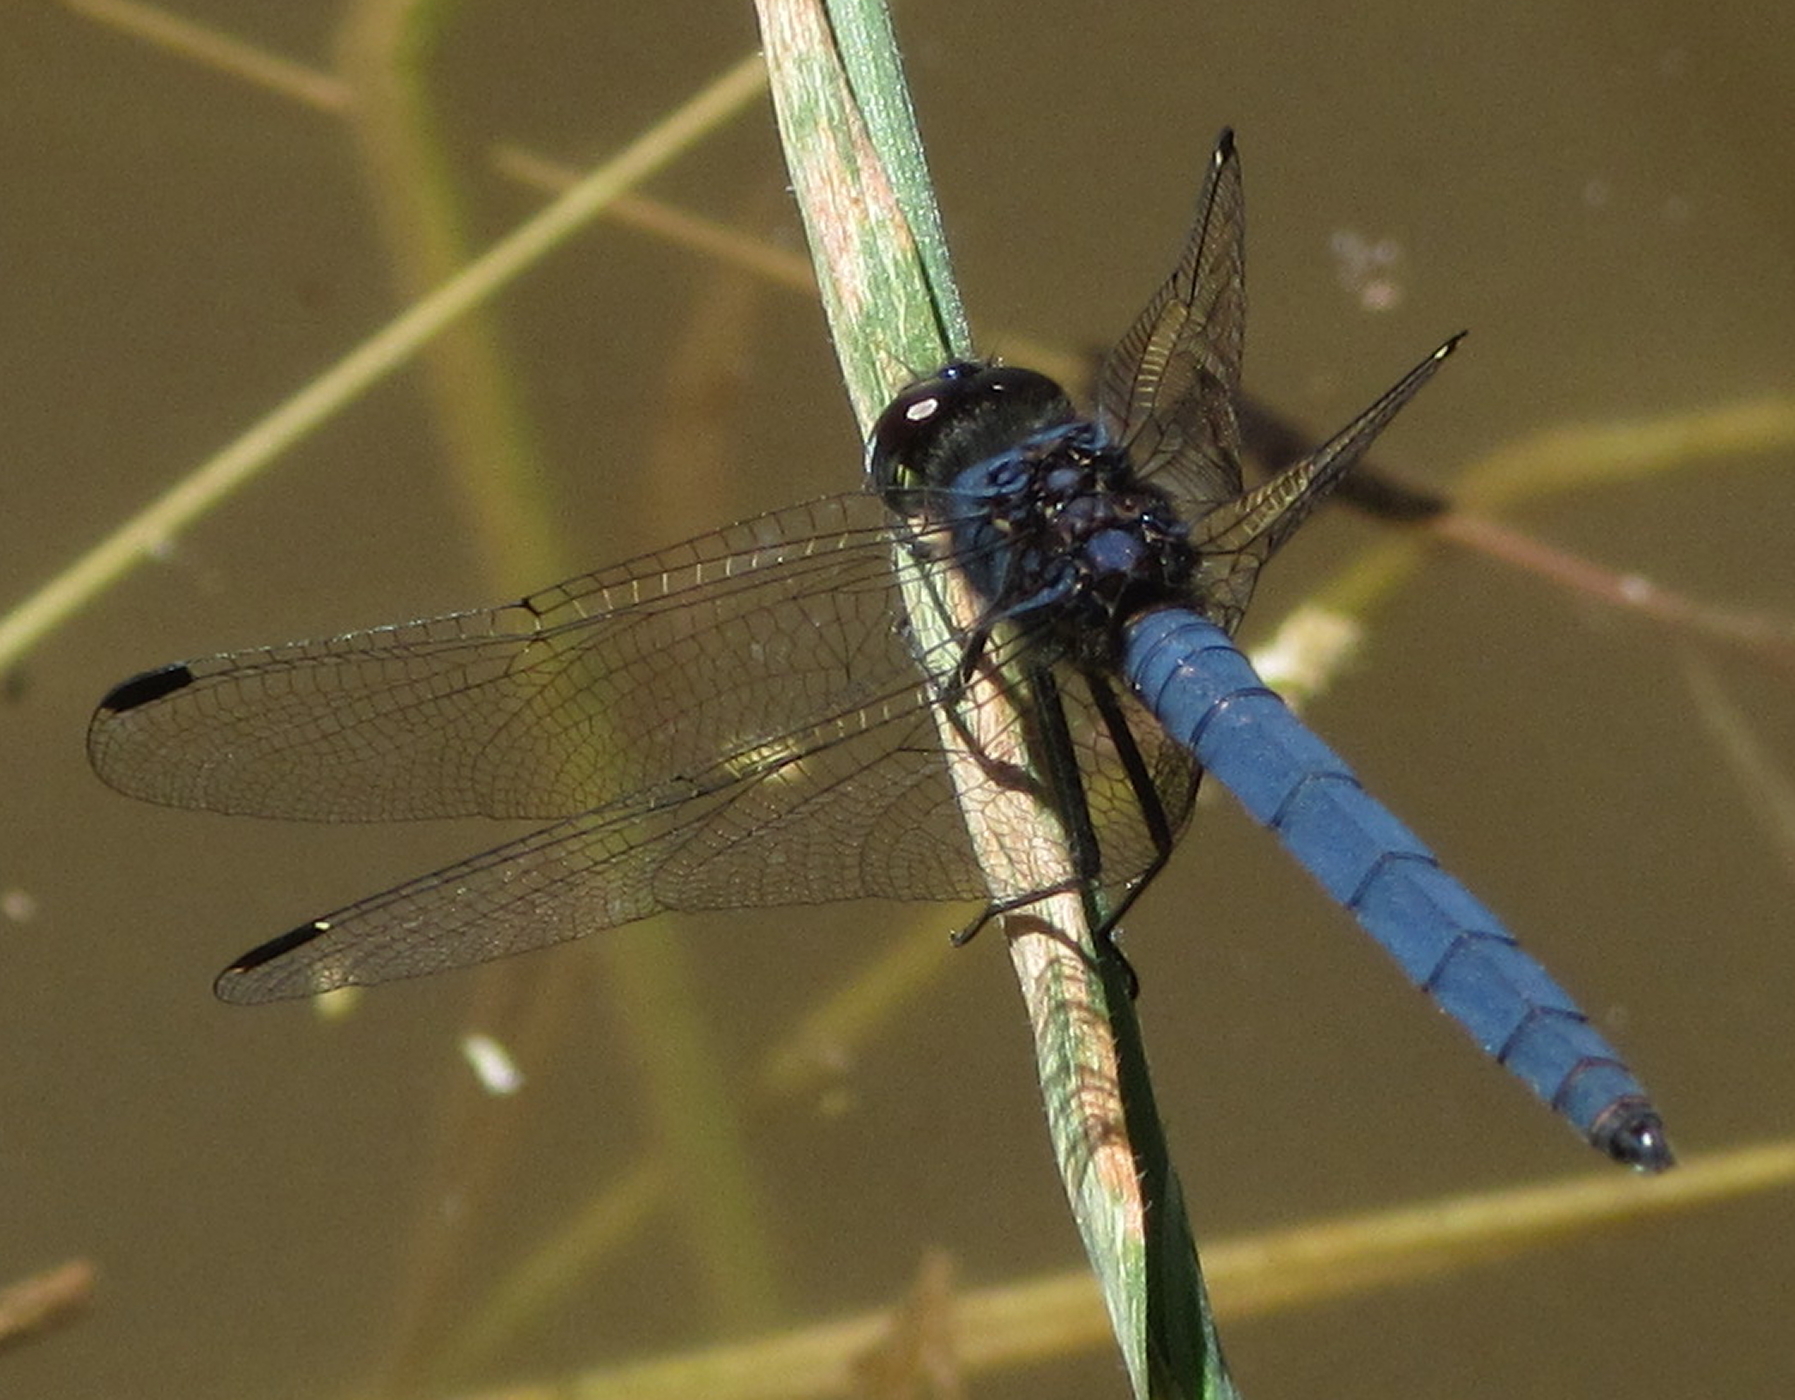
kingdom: Animalia
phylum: Arthropoda
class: Insecta
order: Odonata
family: Libellulidae
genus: Trithemis
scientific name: Trithemis dorsalis
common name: Highland dropwing
